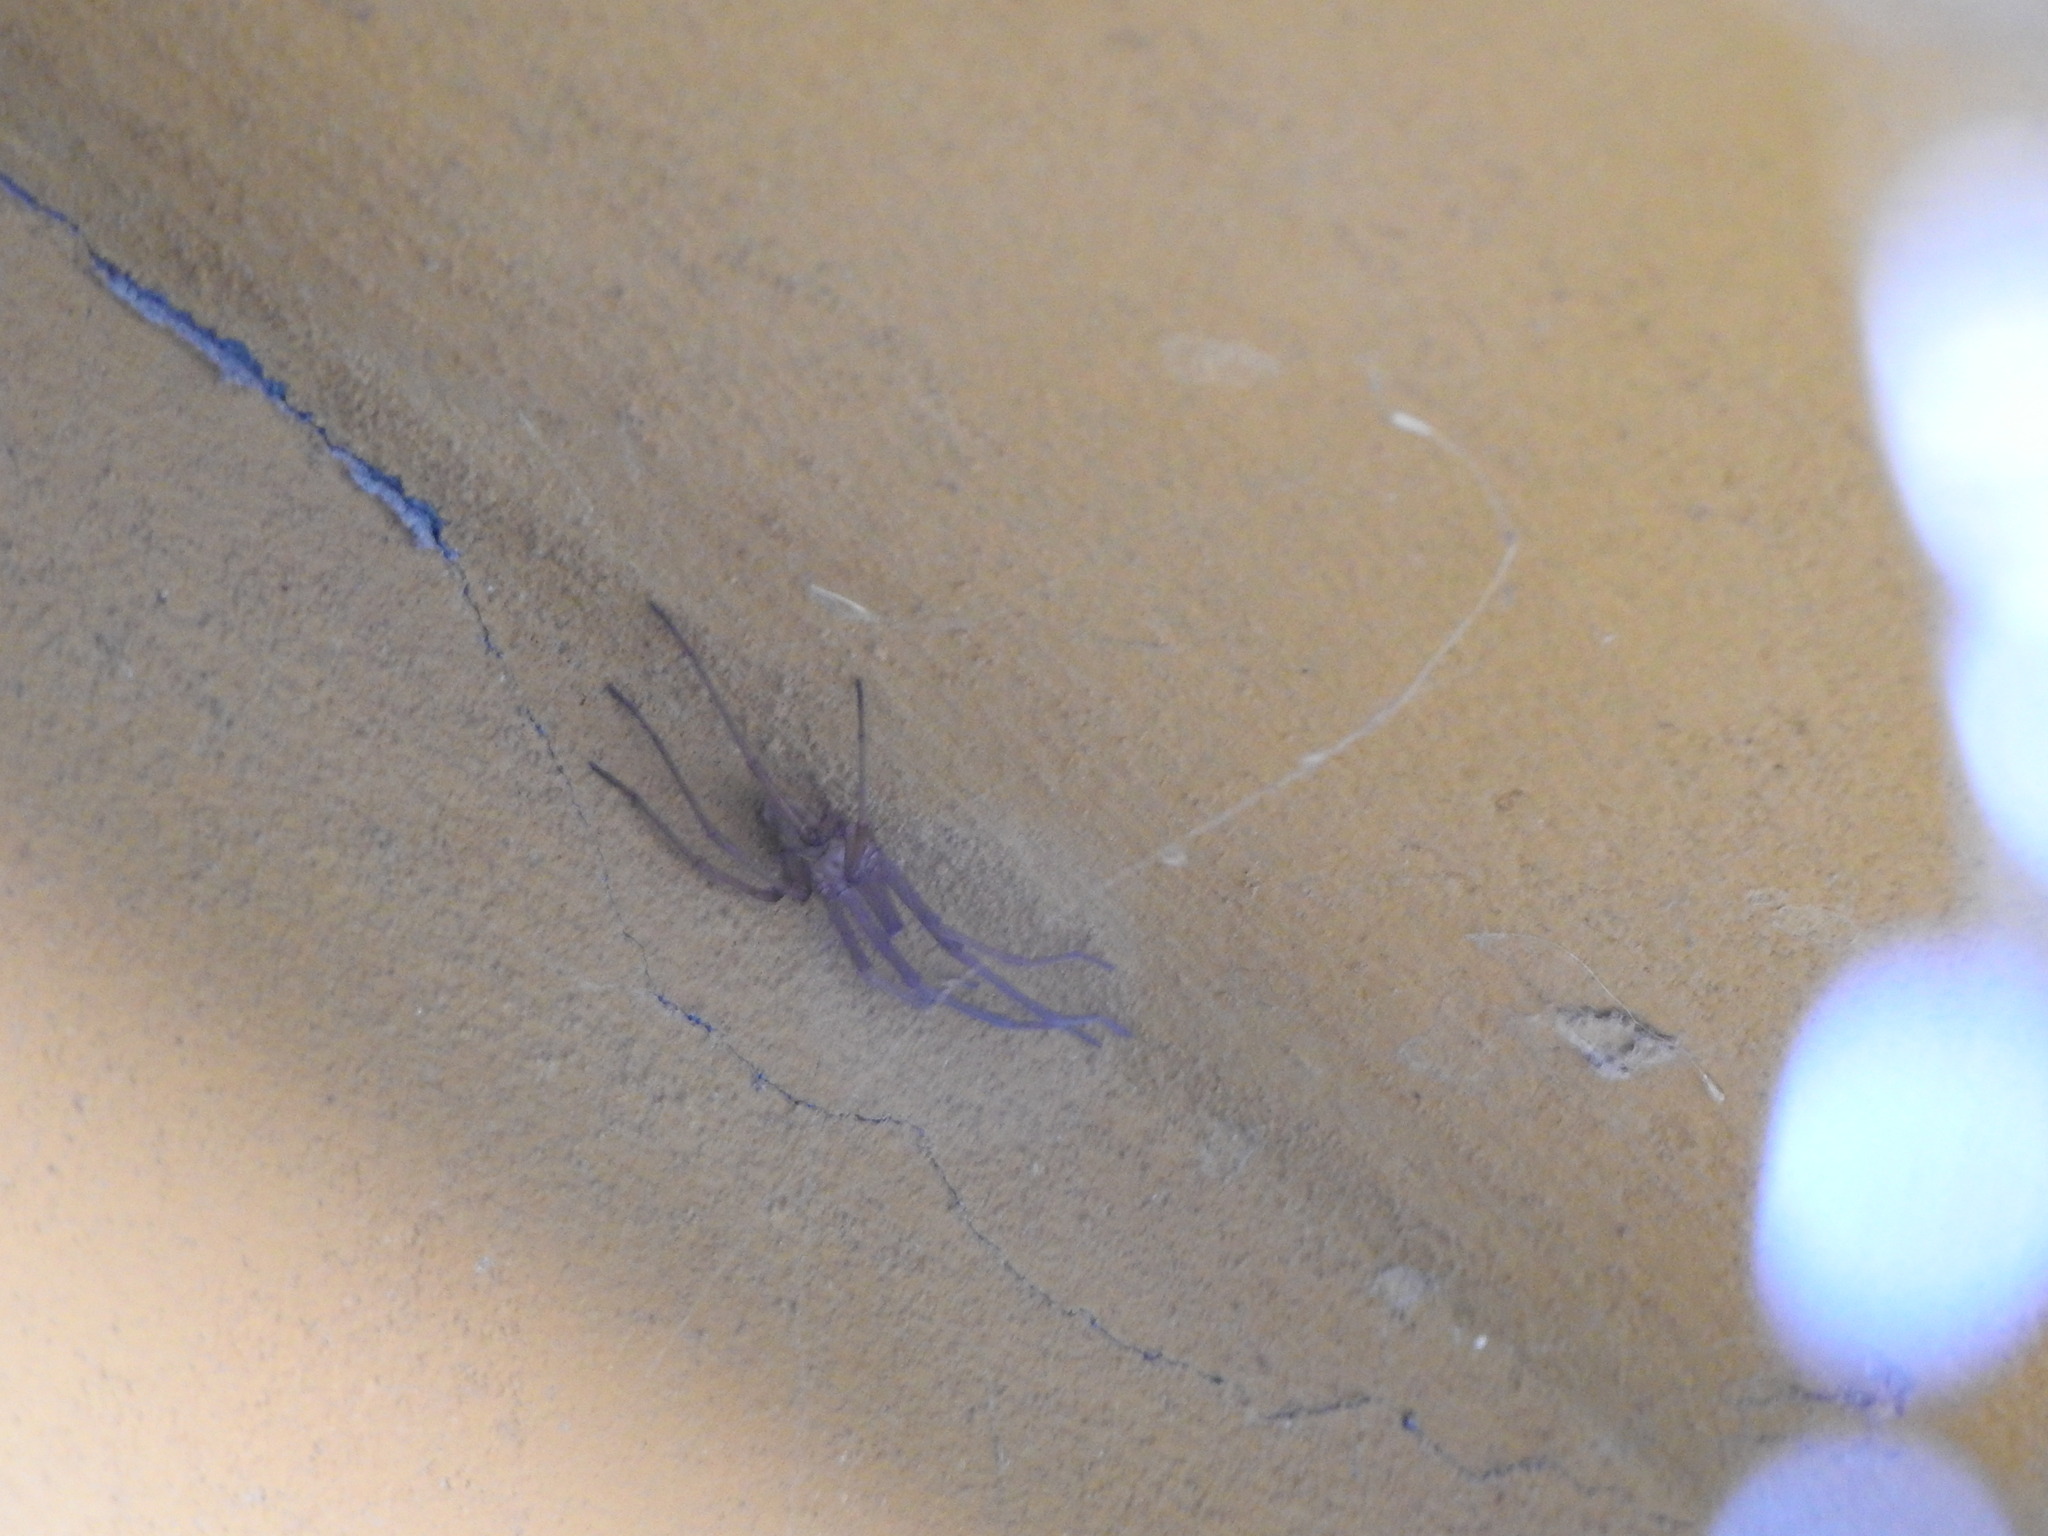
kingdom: Animalia
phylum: Arthropoda
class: Arachnida
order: Araneae
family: Filistatidae
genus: Kukulcania
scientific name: Kukulcania hibernalis
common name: Crevice weaver
